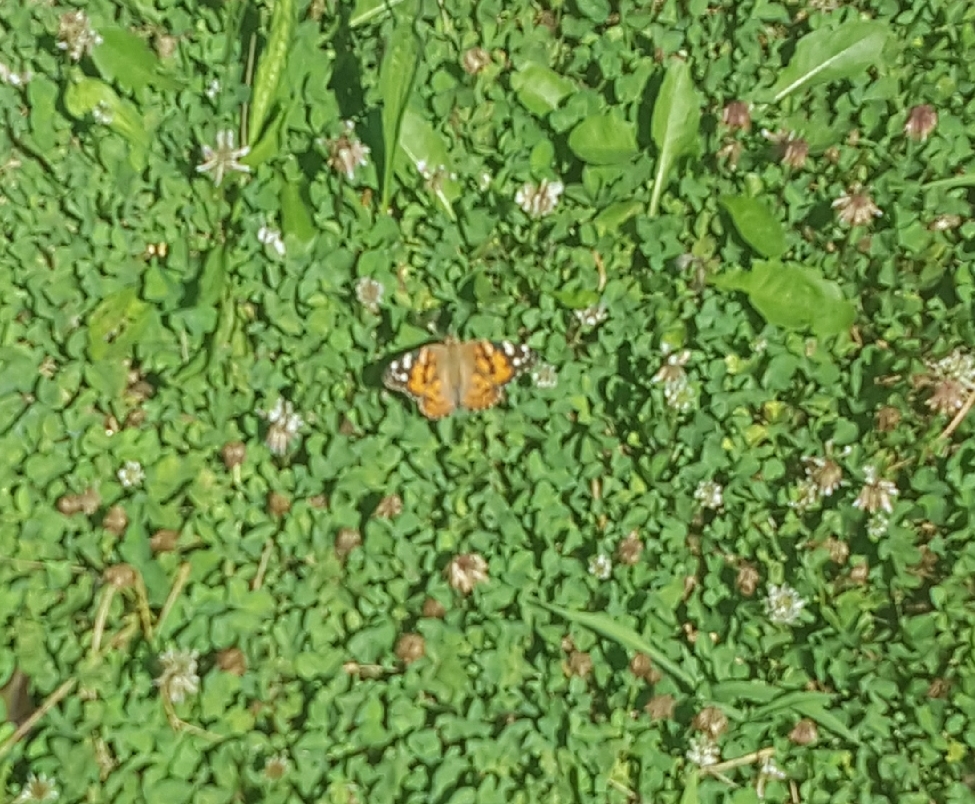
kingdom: Animalia
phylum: Arthropoda
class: Insecta
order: Lepidoptera
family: Nymphalidae
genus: Vanessa
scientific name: Vanessa cardui
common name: Painted lady
